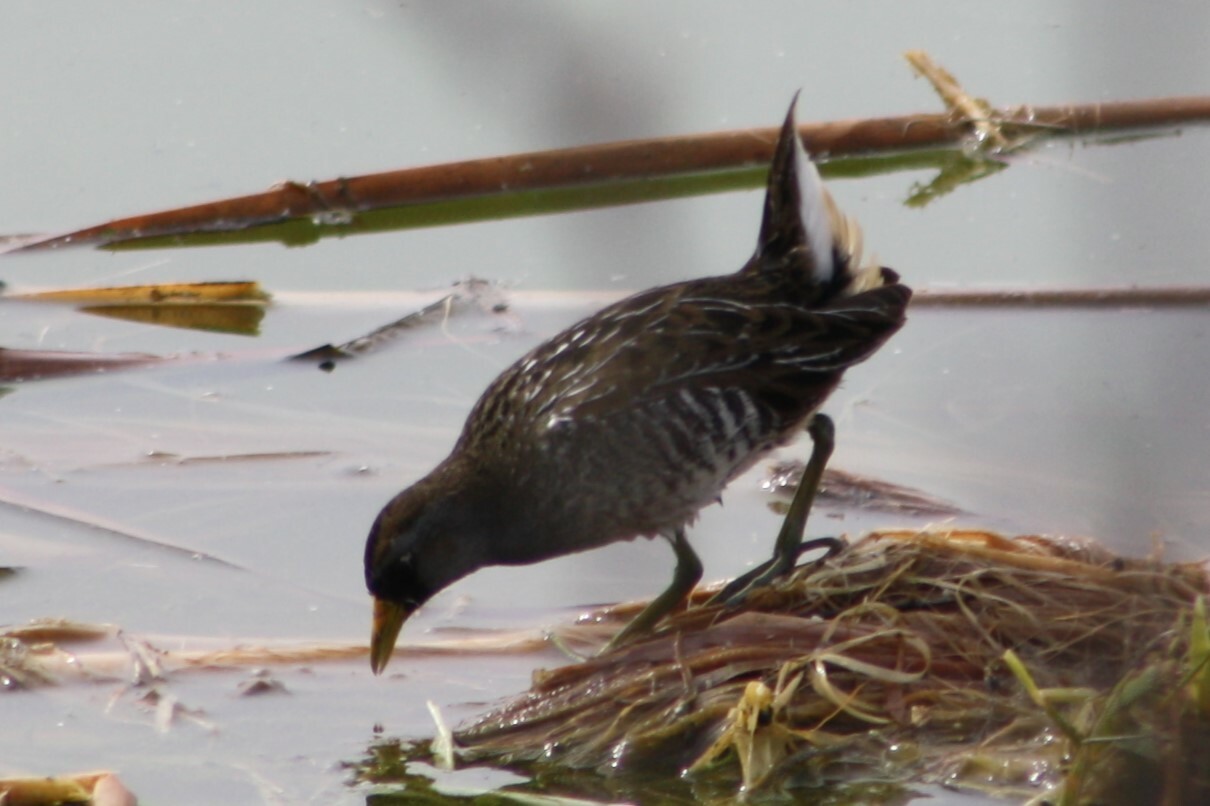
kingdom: Animalia
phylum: Chordata
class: Aves
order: Gruiformes
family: Rallidae
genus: Porzana
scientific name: Porzana carolina
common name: Sora
